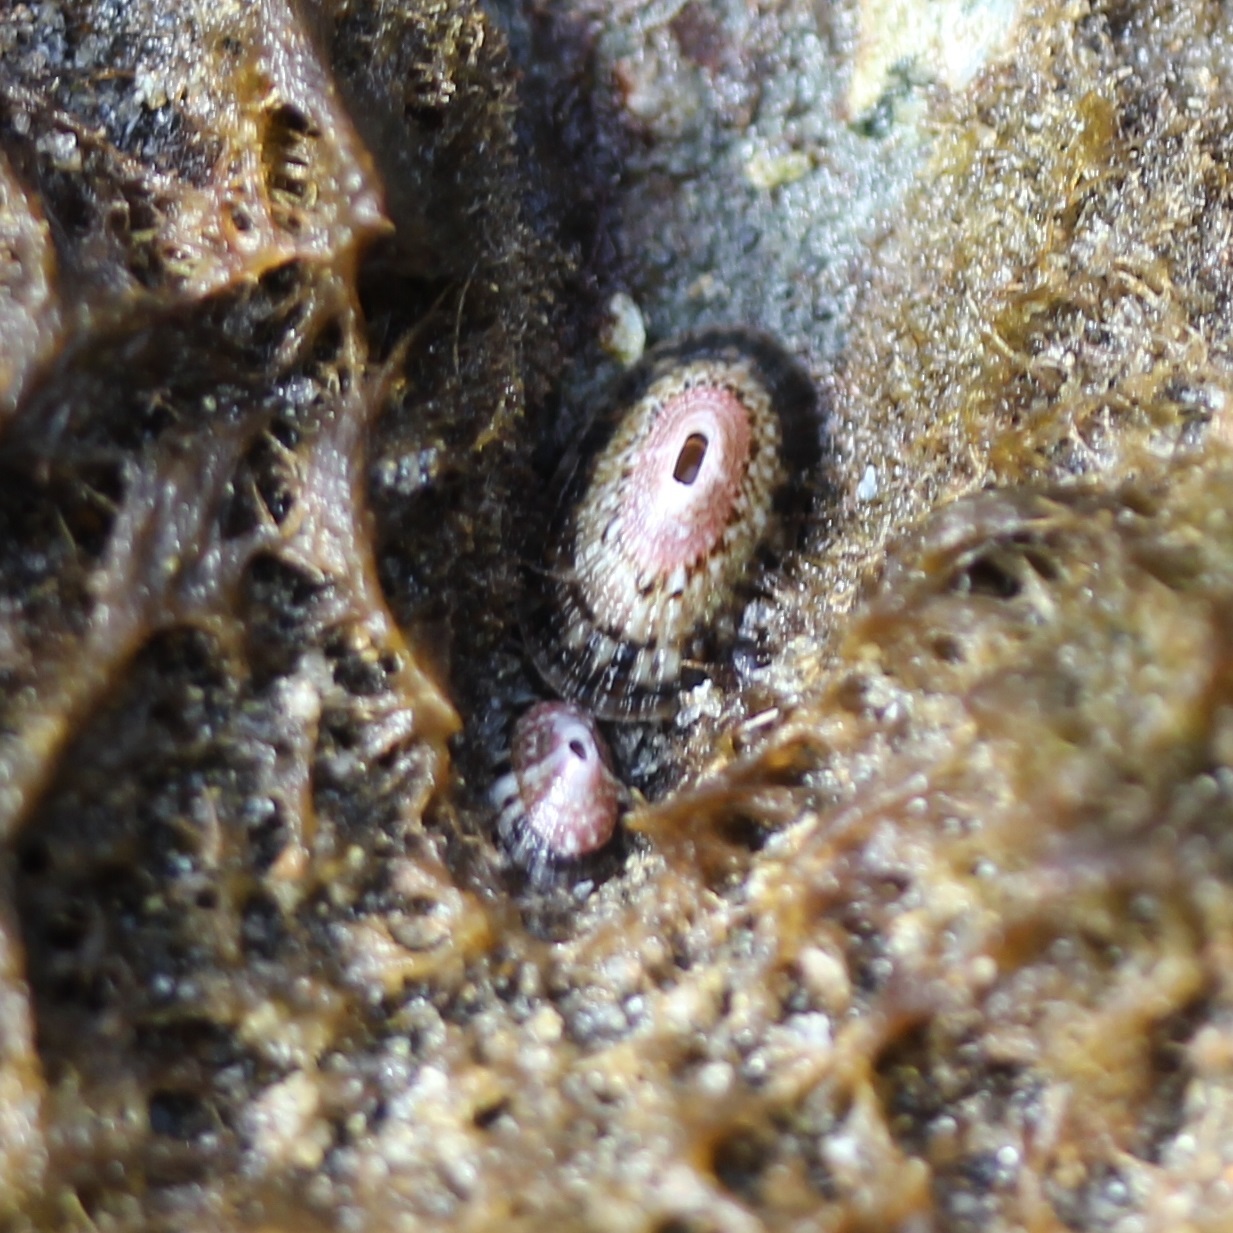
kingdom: Animalia
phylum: Mollusca
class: Gastropoda
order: Lepetellida
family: Fissurellidae
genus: Fissurella
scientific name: Fissurella volcano
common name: Volcano keyhole limpet
